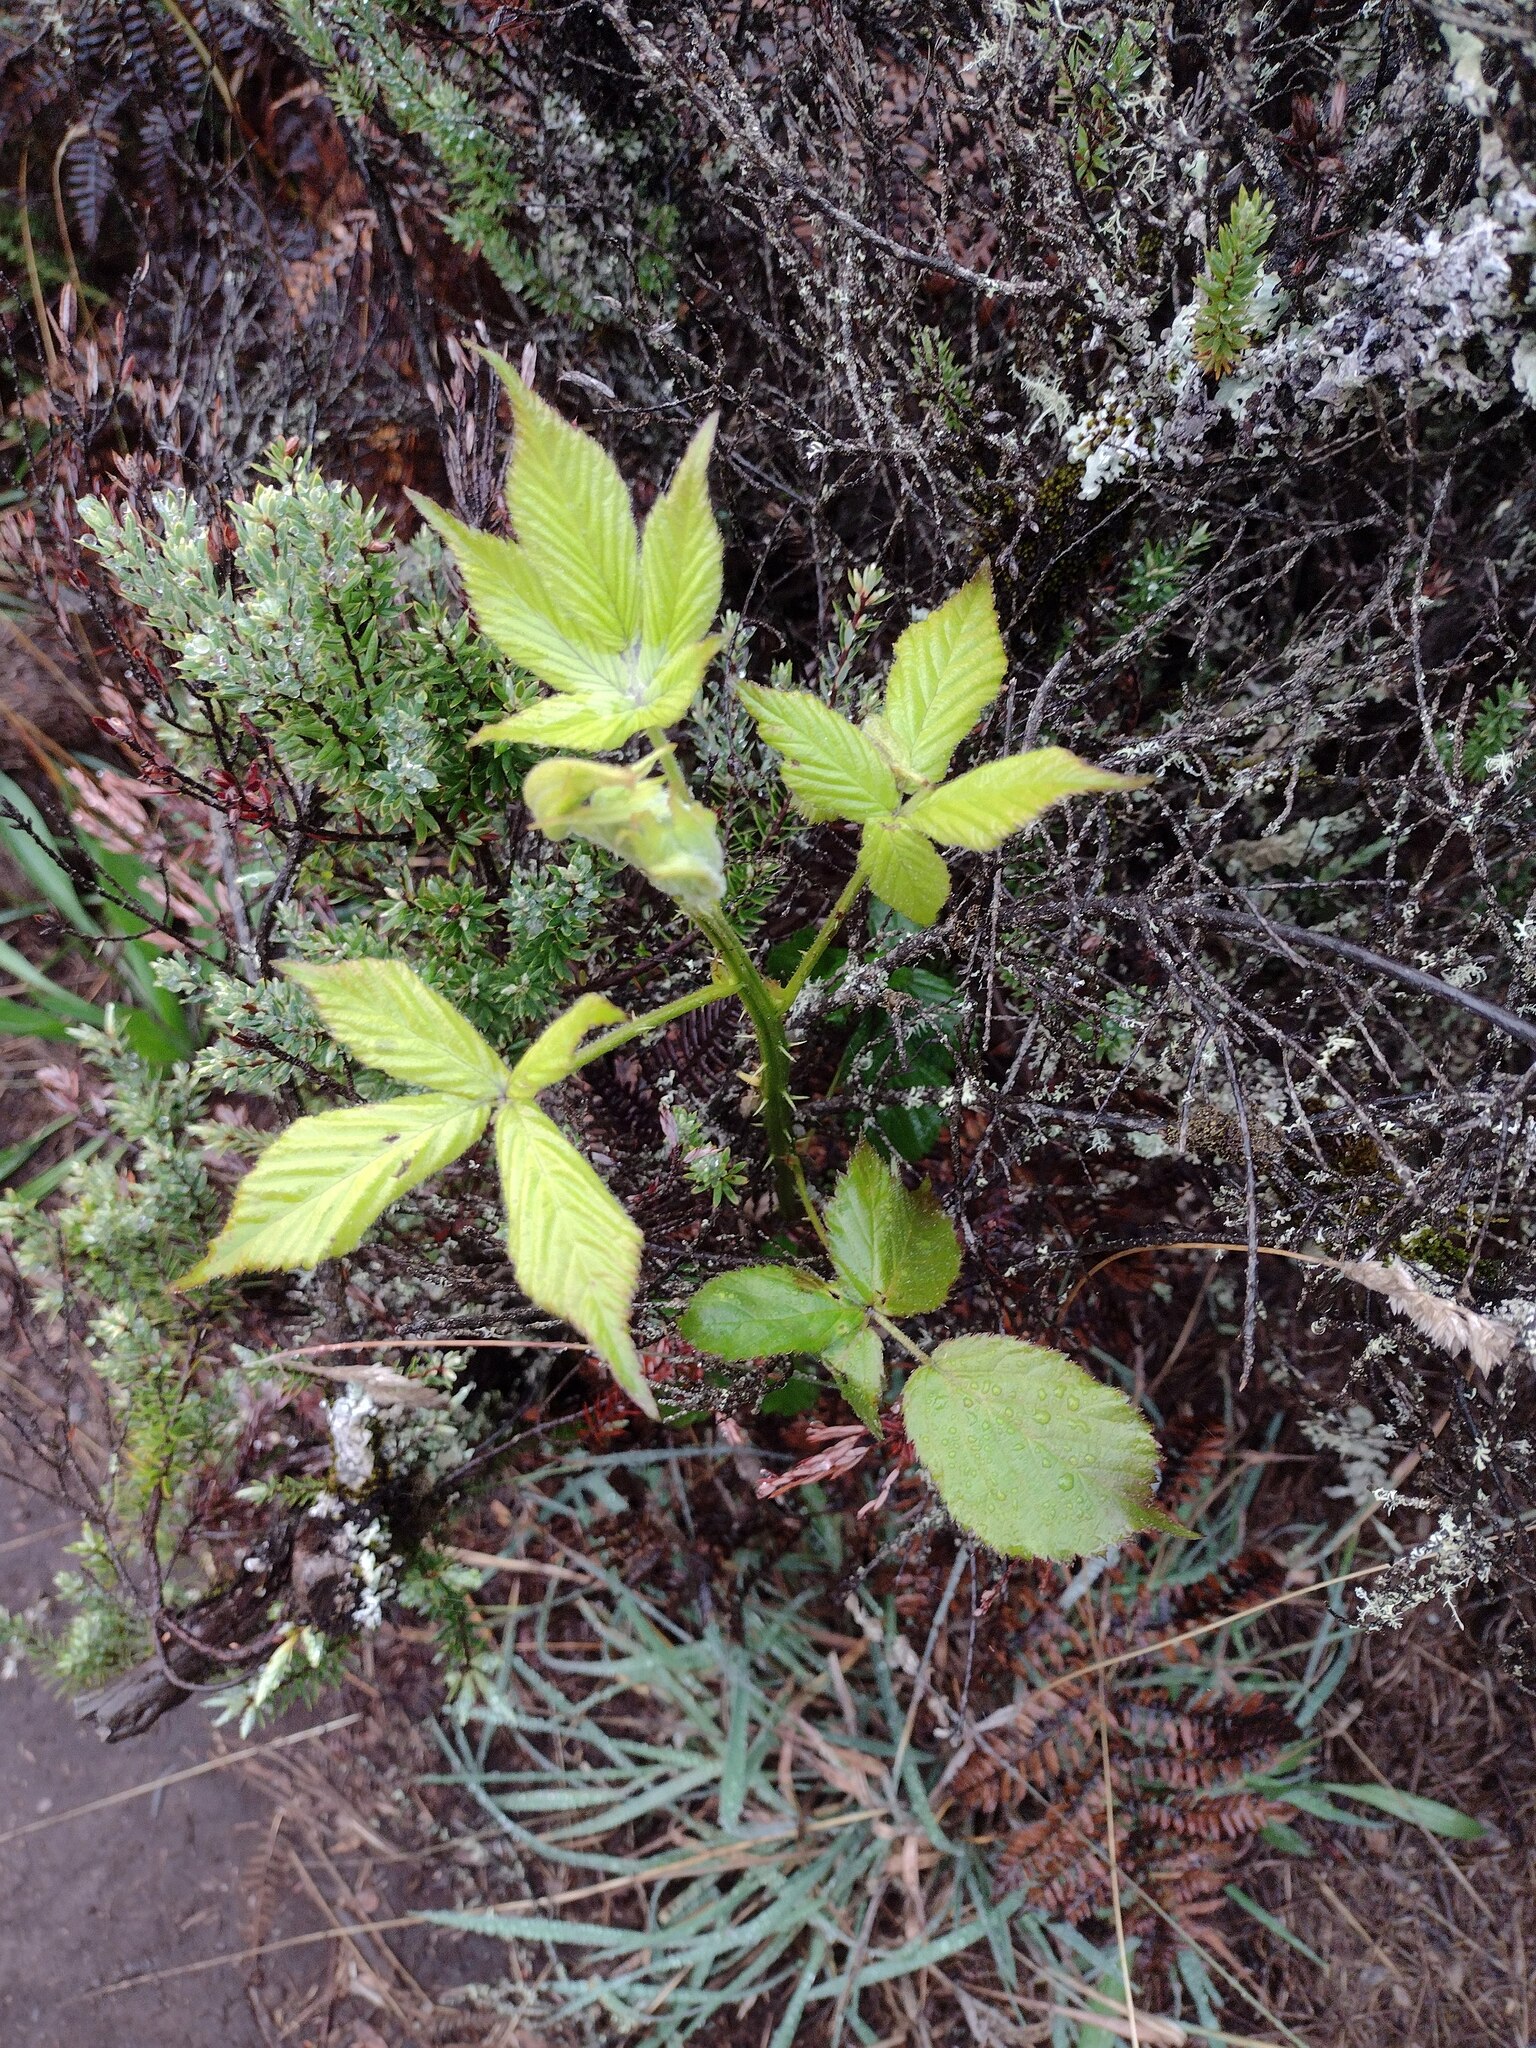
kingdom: Plantae
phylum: Tracheophyta
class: Magnoliopsida
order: Rosales
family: Rosaceae
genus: Rubus
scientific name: Rubus argutus
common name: Sawtooth blackberry
